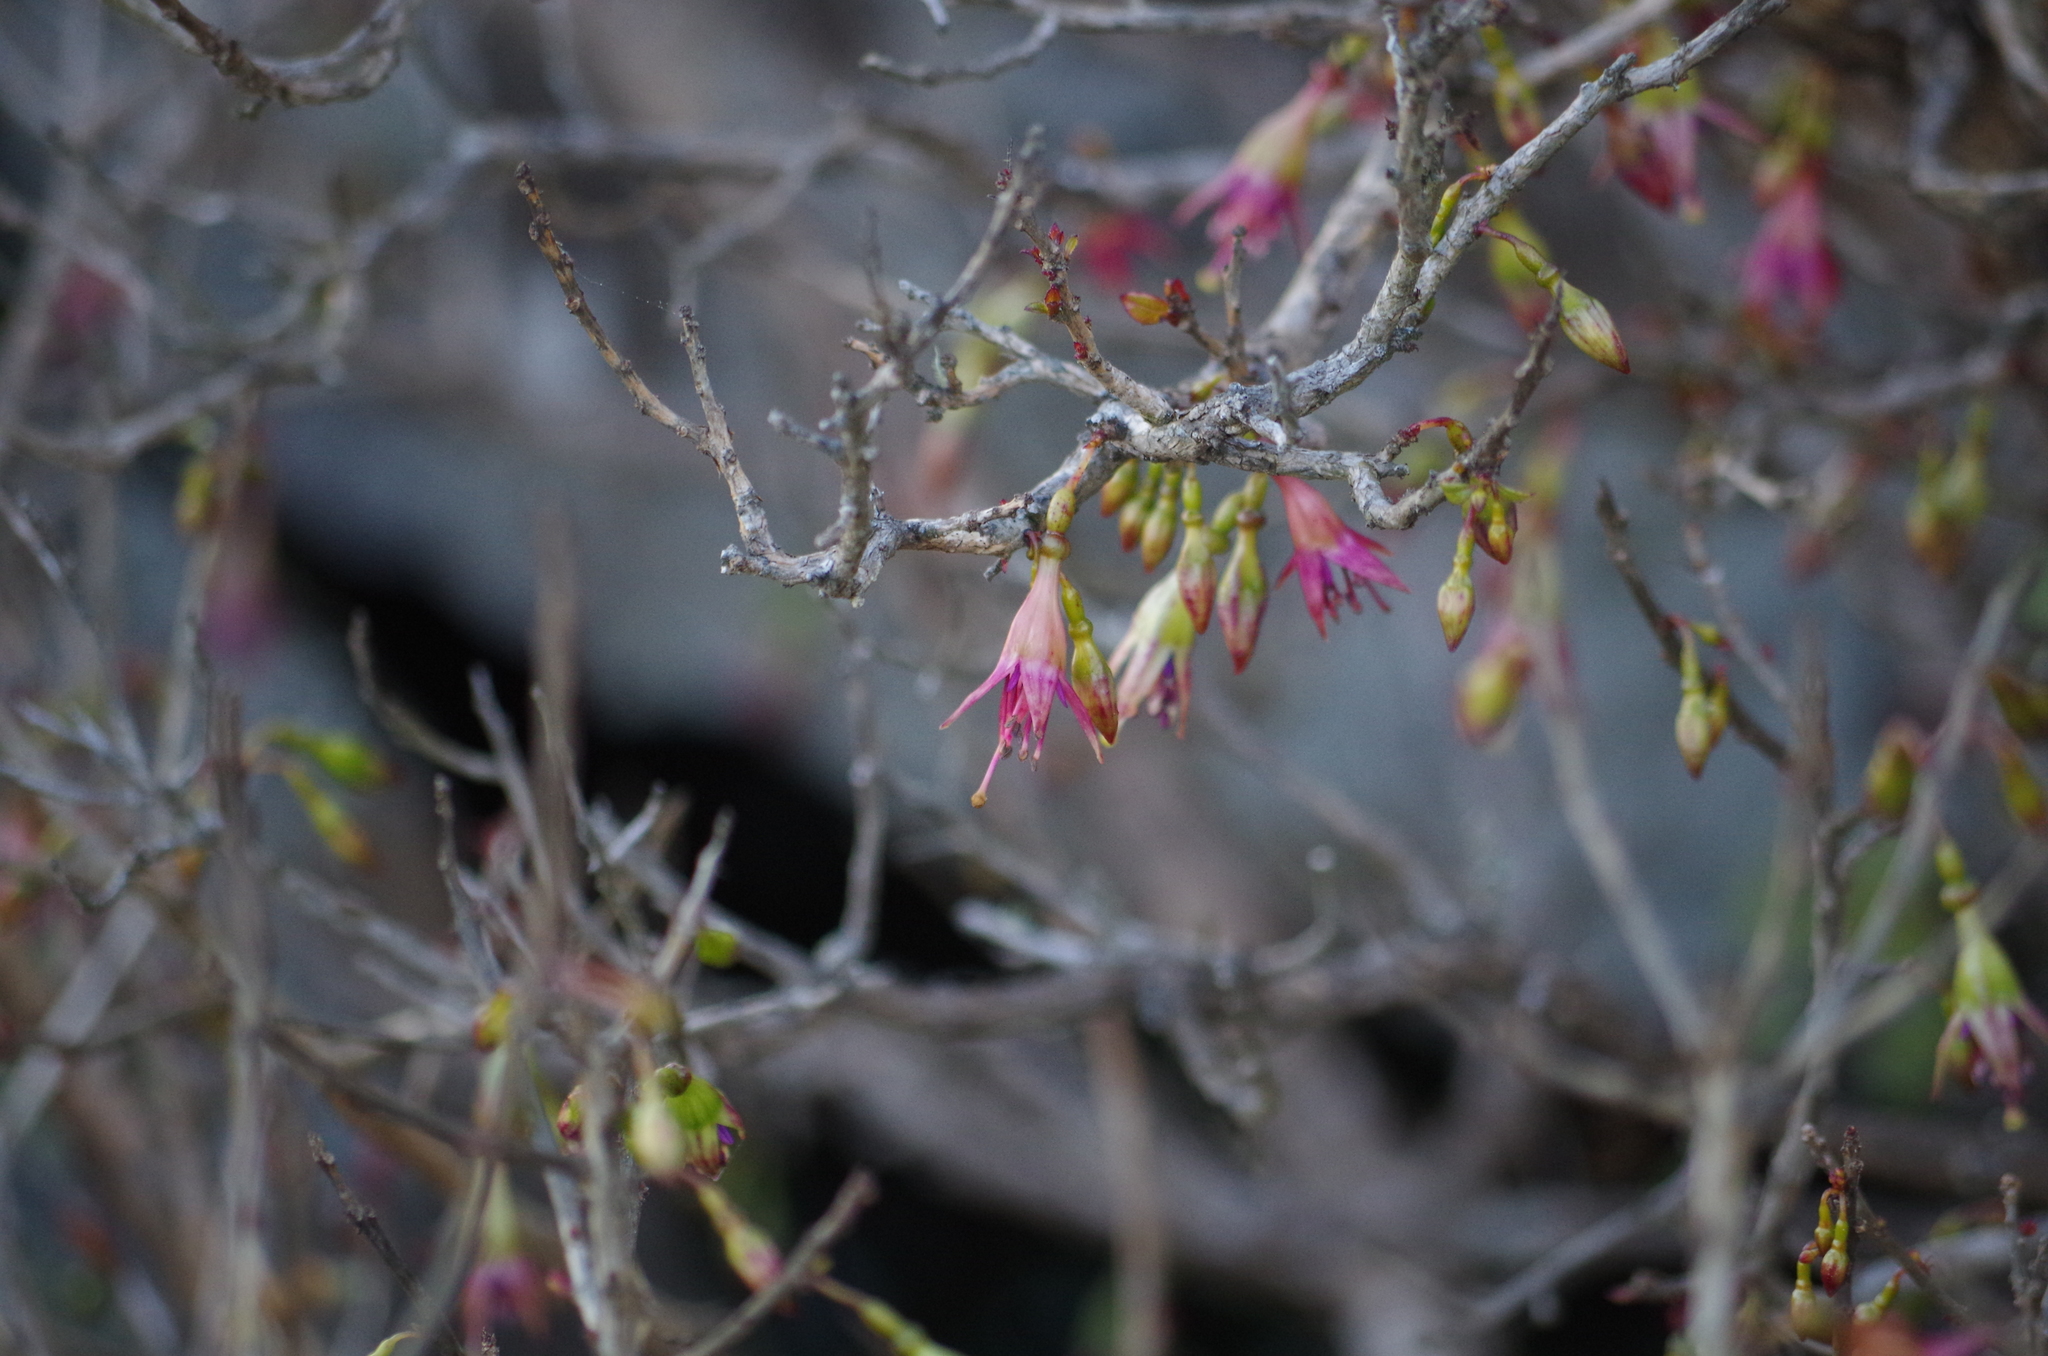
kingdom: Plantae
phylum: Tracheophyta
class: Magnoliopsida
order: Myrtales
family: Onagraceae
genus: Fuchsia
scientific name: Fuchsia excorticata
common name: Tree fuchsia
